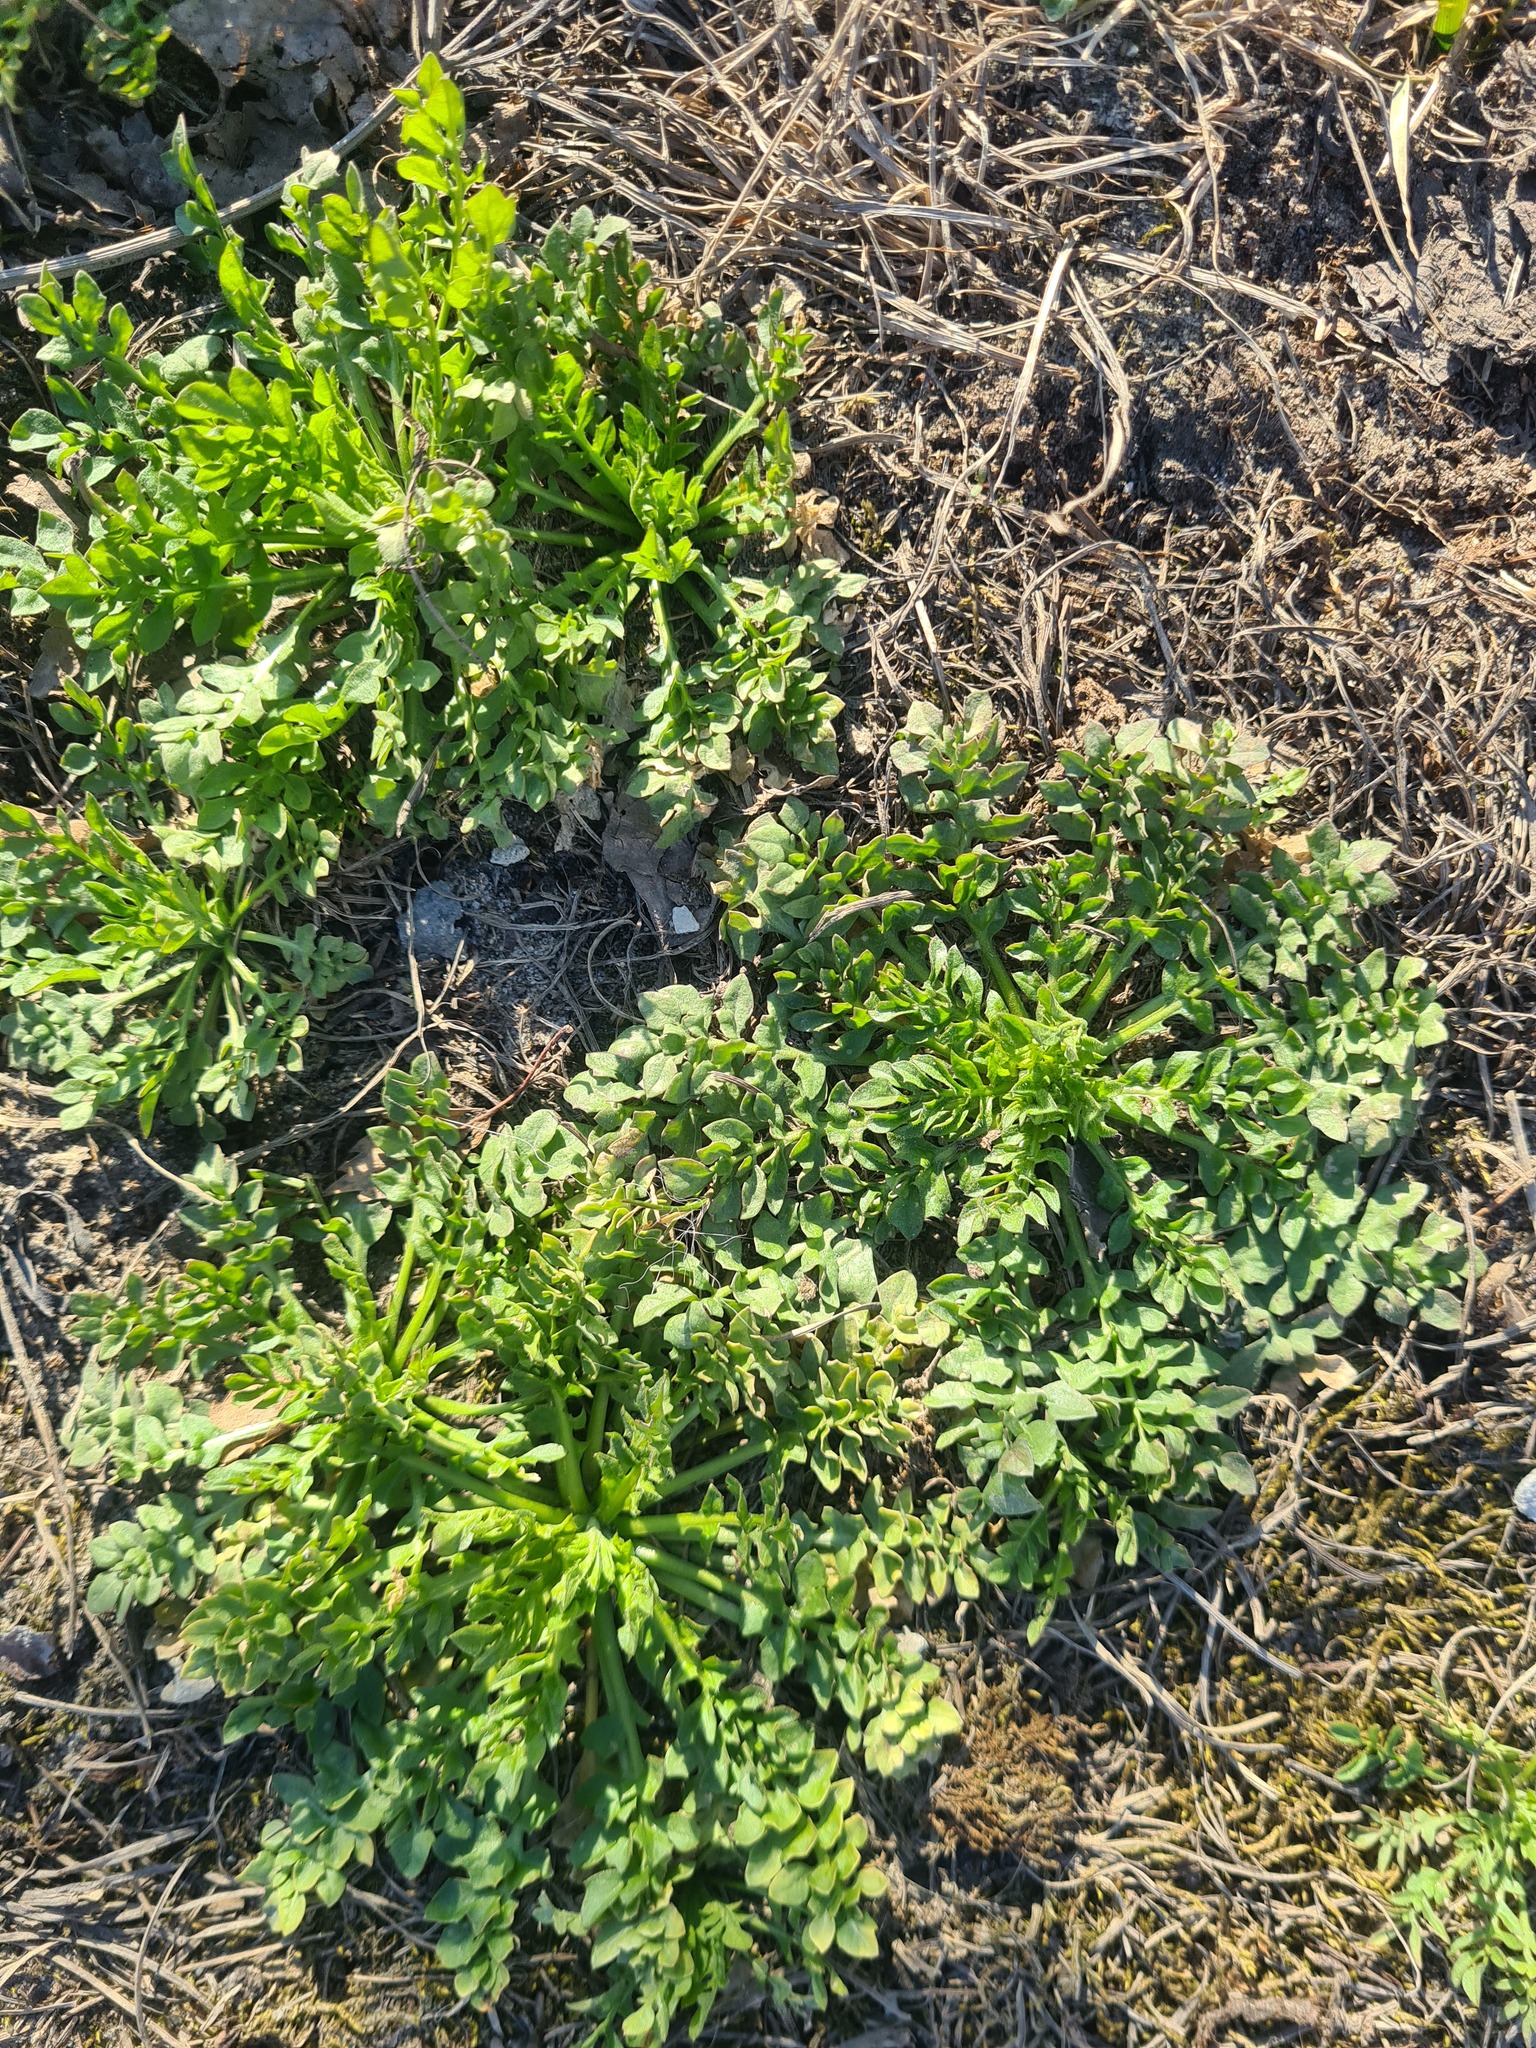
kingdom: Plantae
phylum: Tracheophyta
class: Magnoliopsida
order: Brassicales
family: Brassicaceae
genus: Capsella
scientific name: Capsella bursa-pastoris
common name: Shepherd's purse
